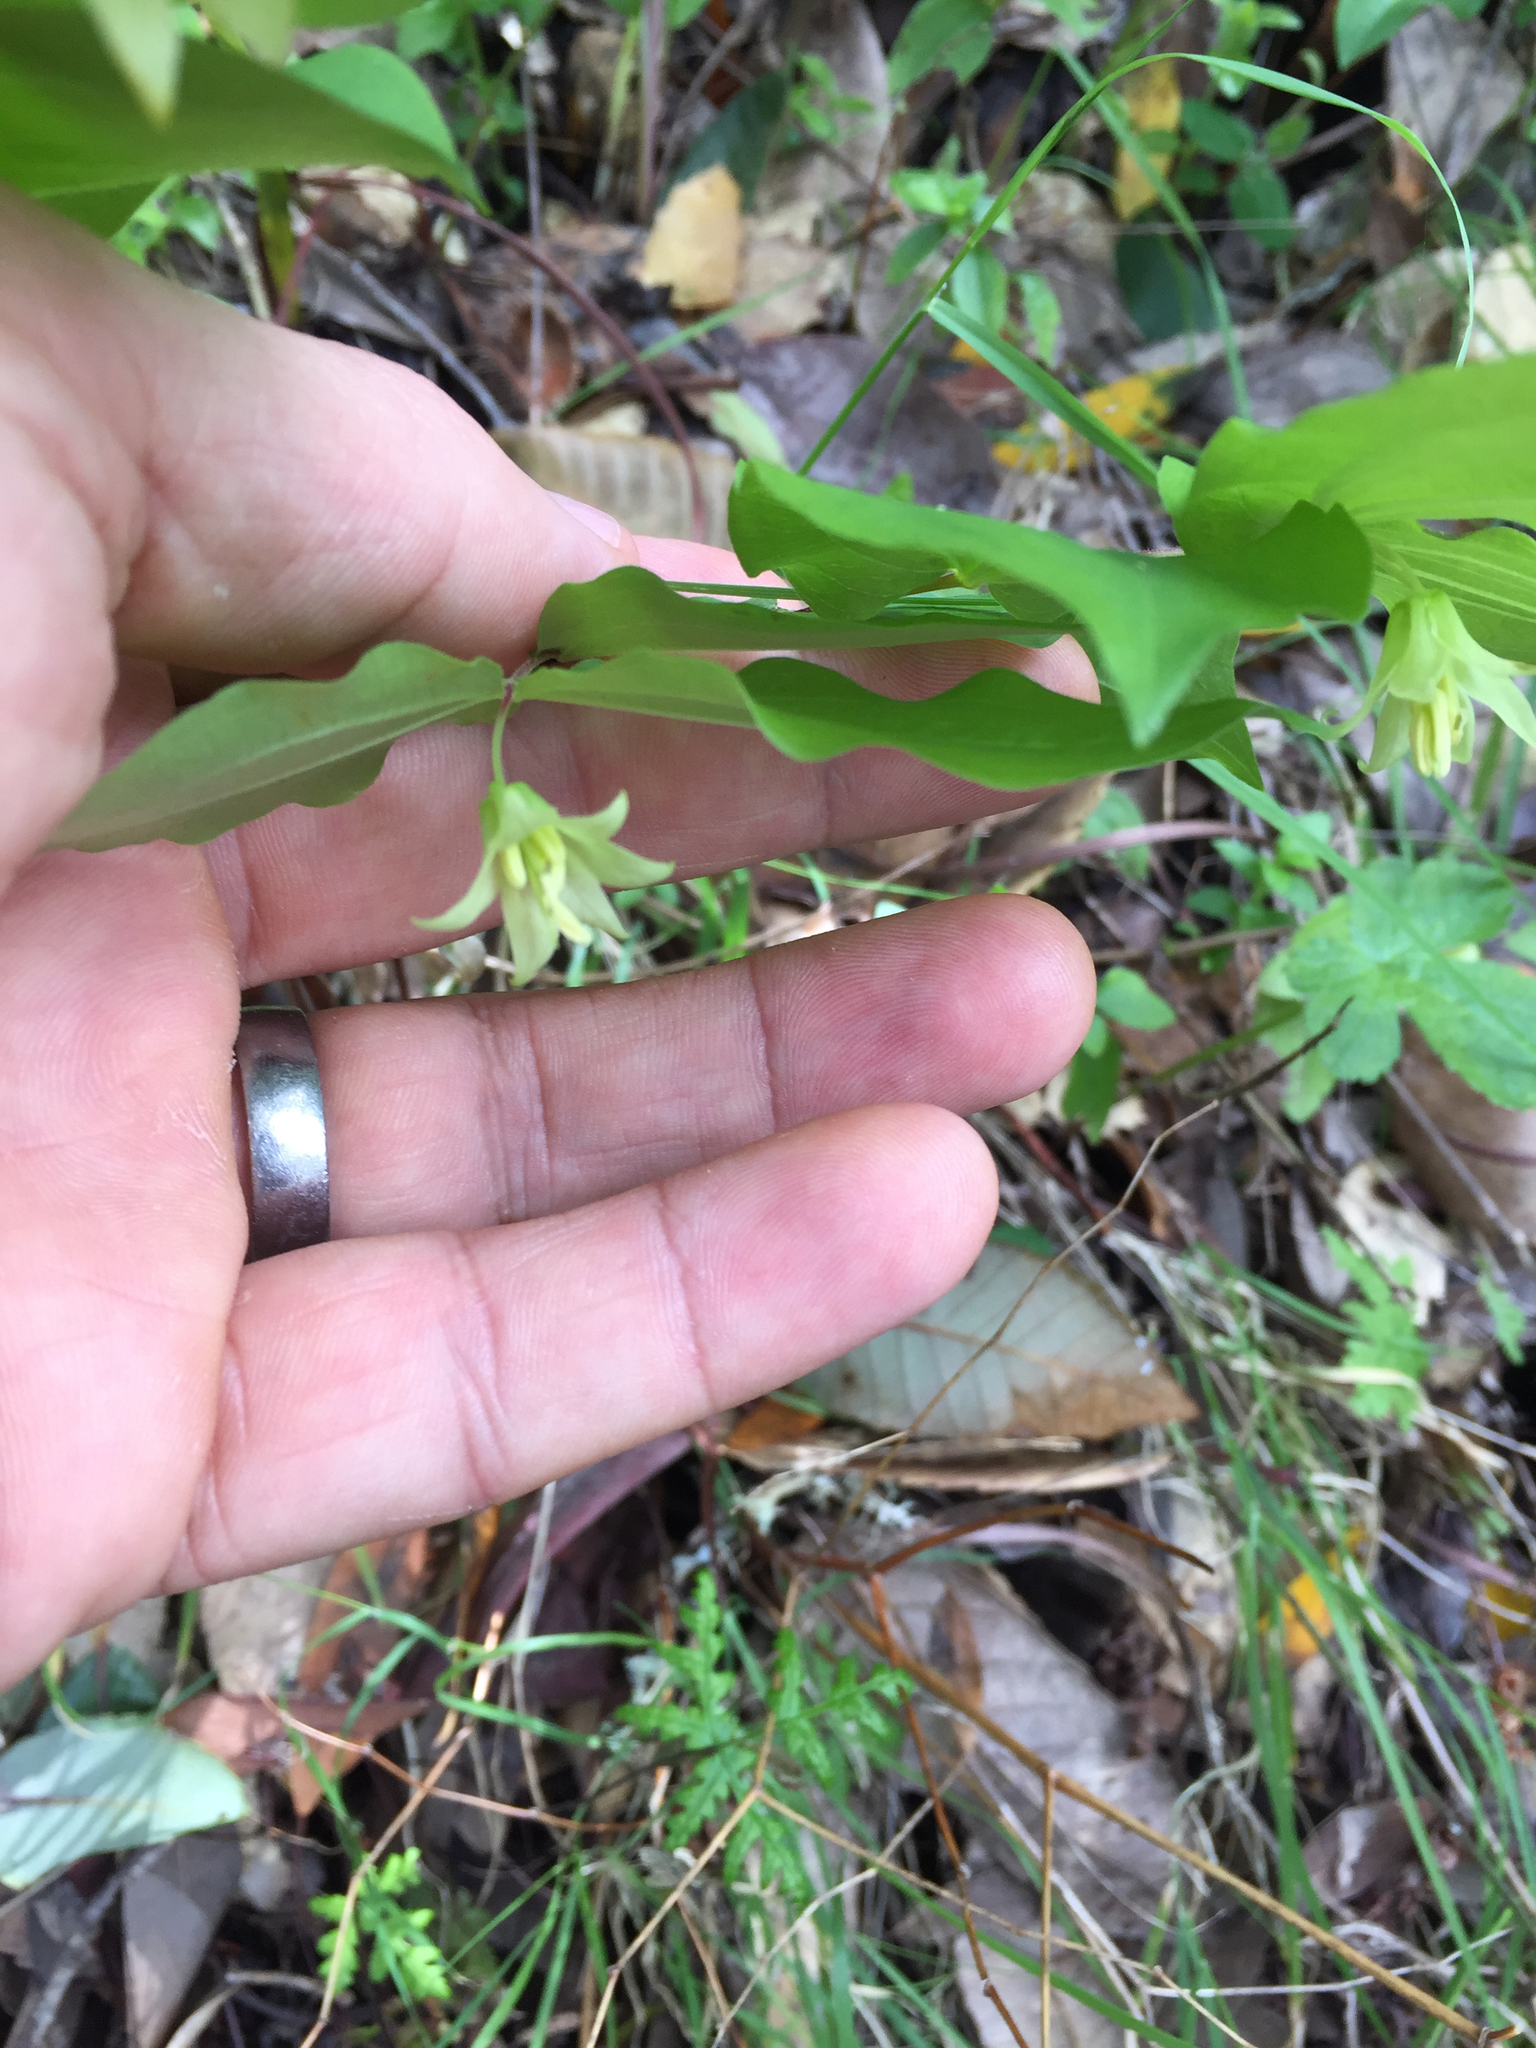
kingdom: Plantae
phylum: Tracheophyta
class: Liliopsida
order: Liliales
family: Liliaceae
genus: Prosartes
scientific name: Prosartes hookeri
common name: Fairy-bells
